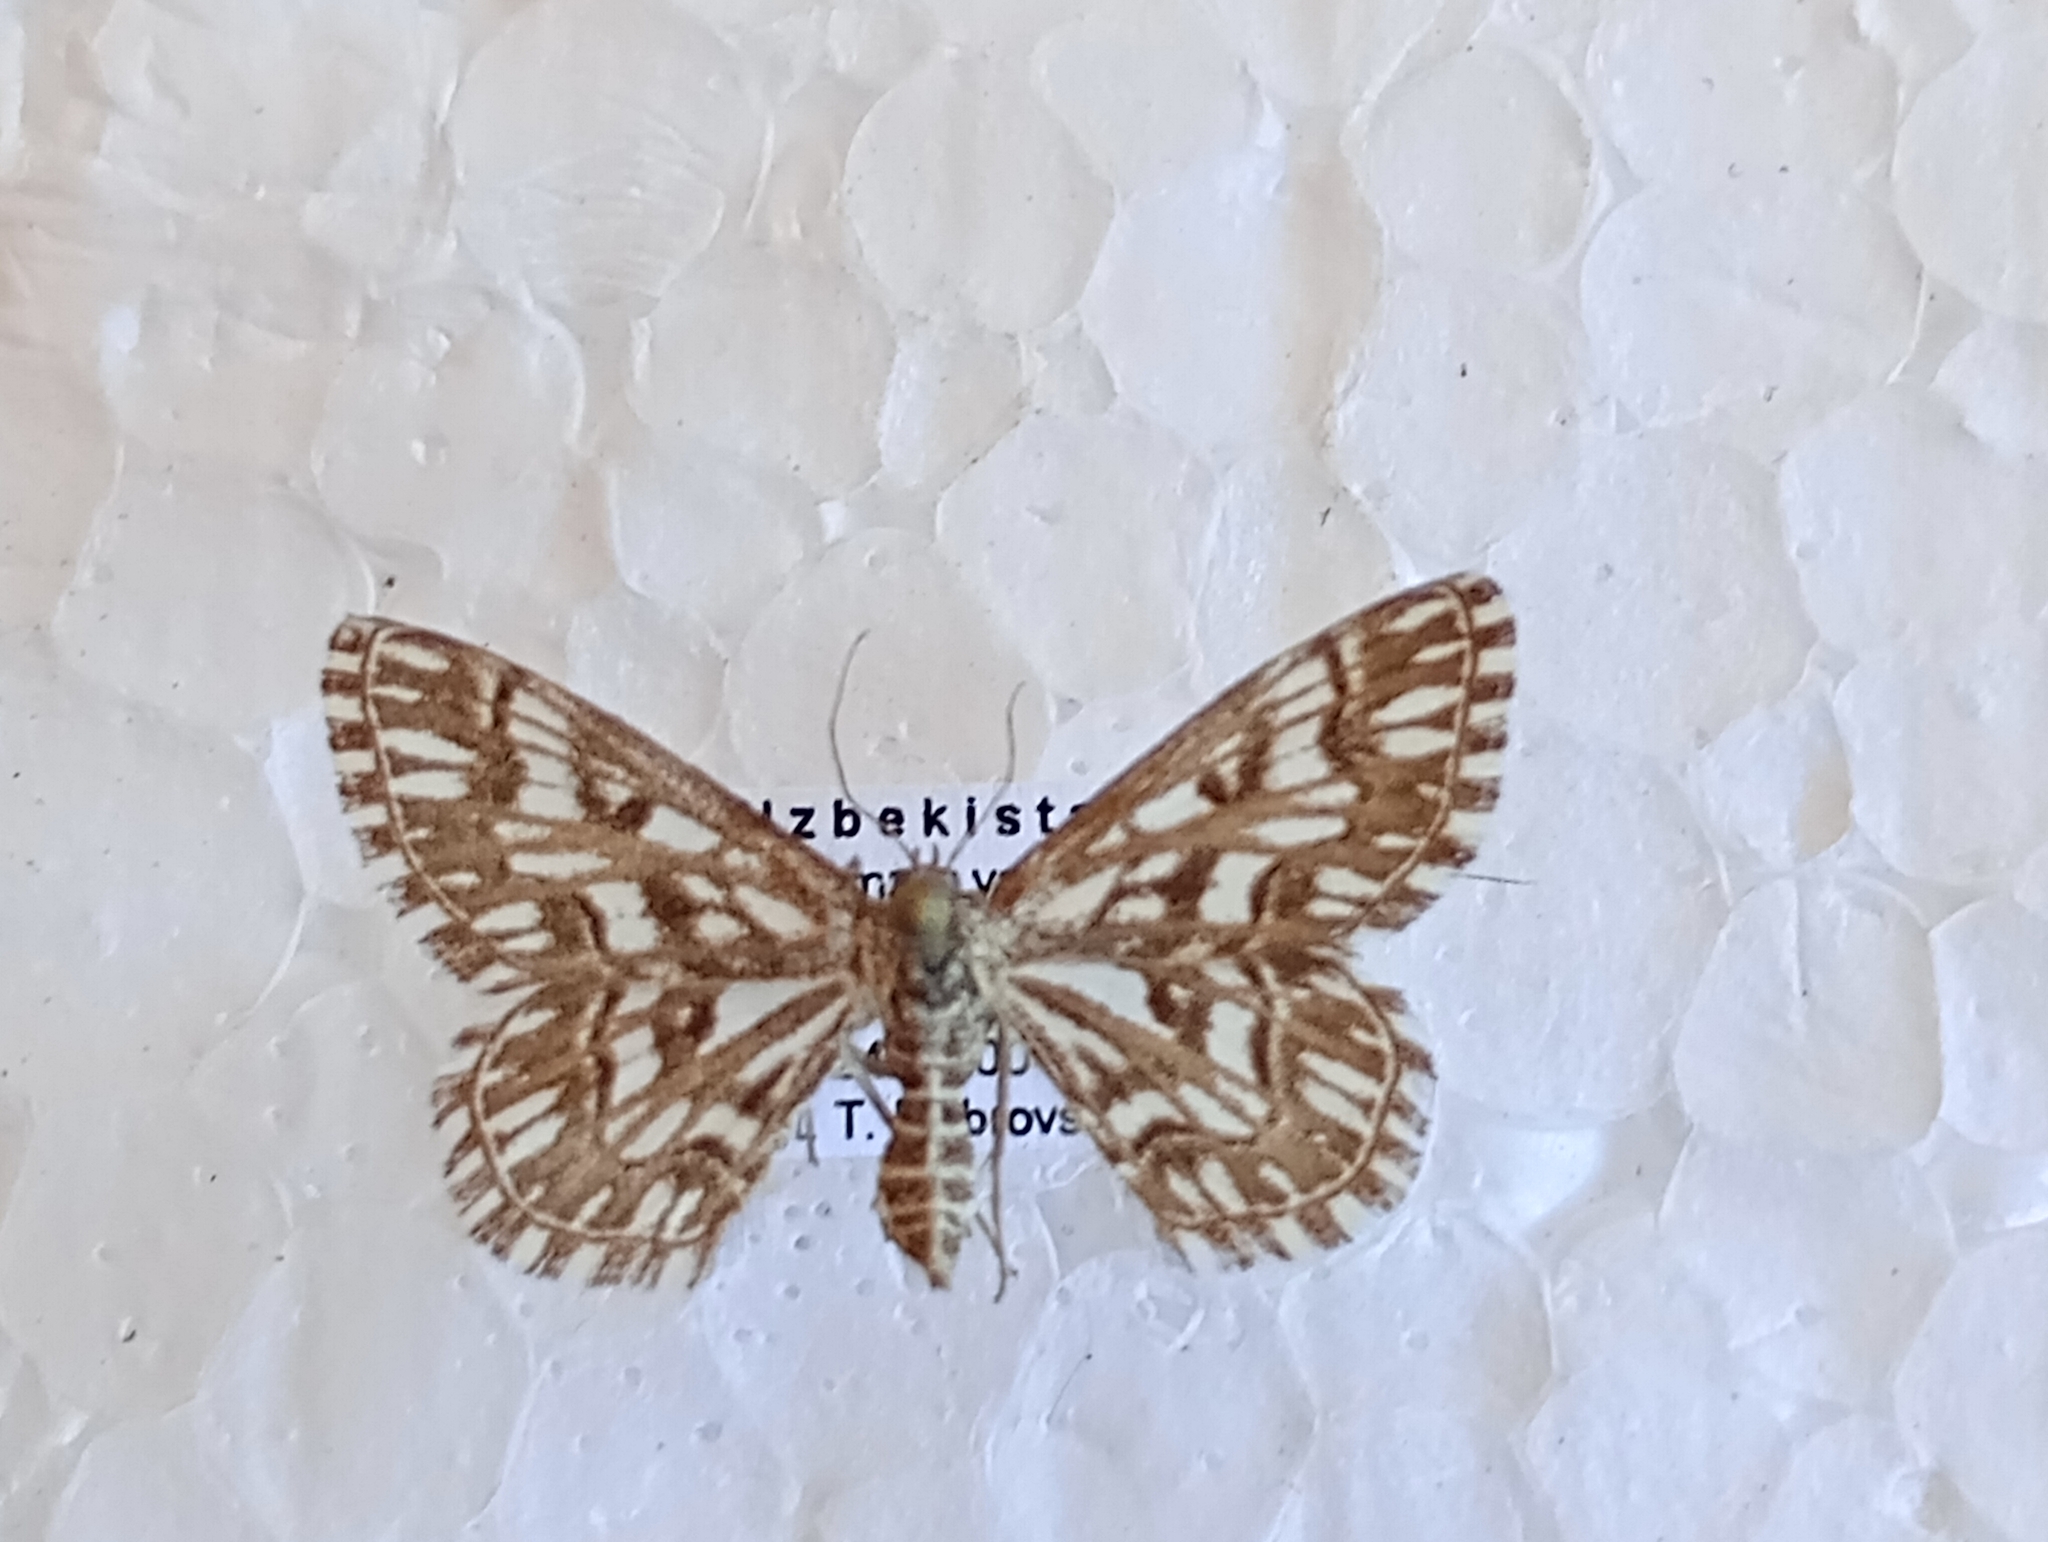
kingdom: Animalia
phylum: Arthropoda
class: Insecta
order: Lepidoptera
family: Geometridae
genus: Cinglis
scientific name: Cinglis humifusaria
